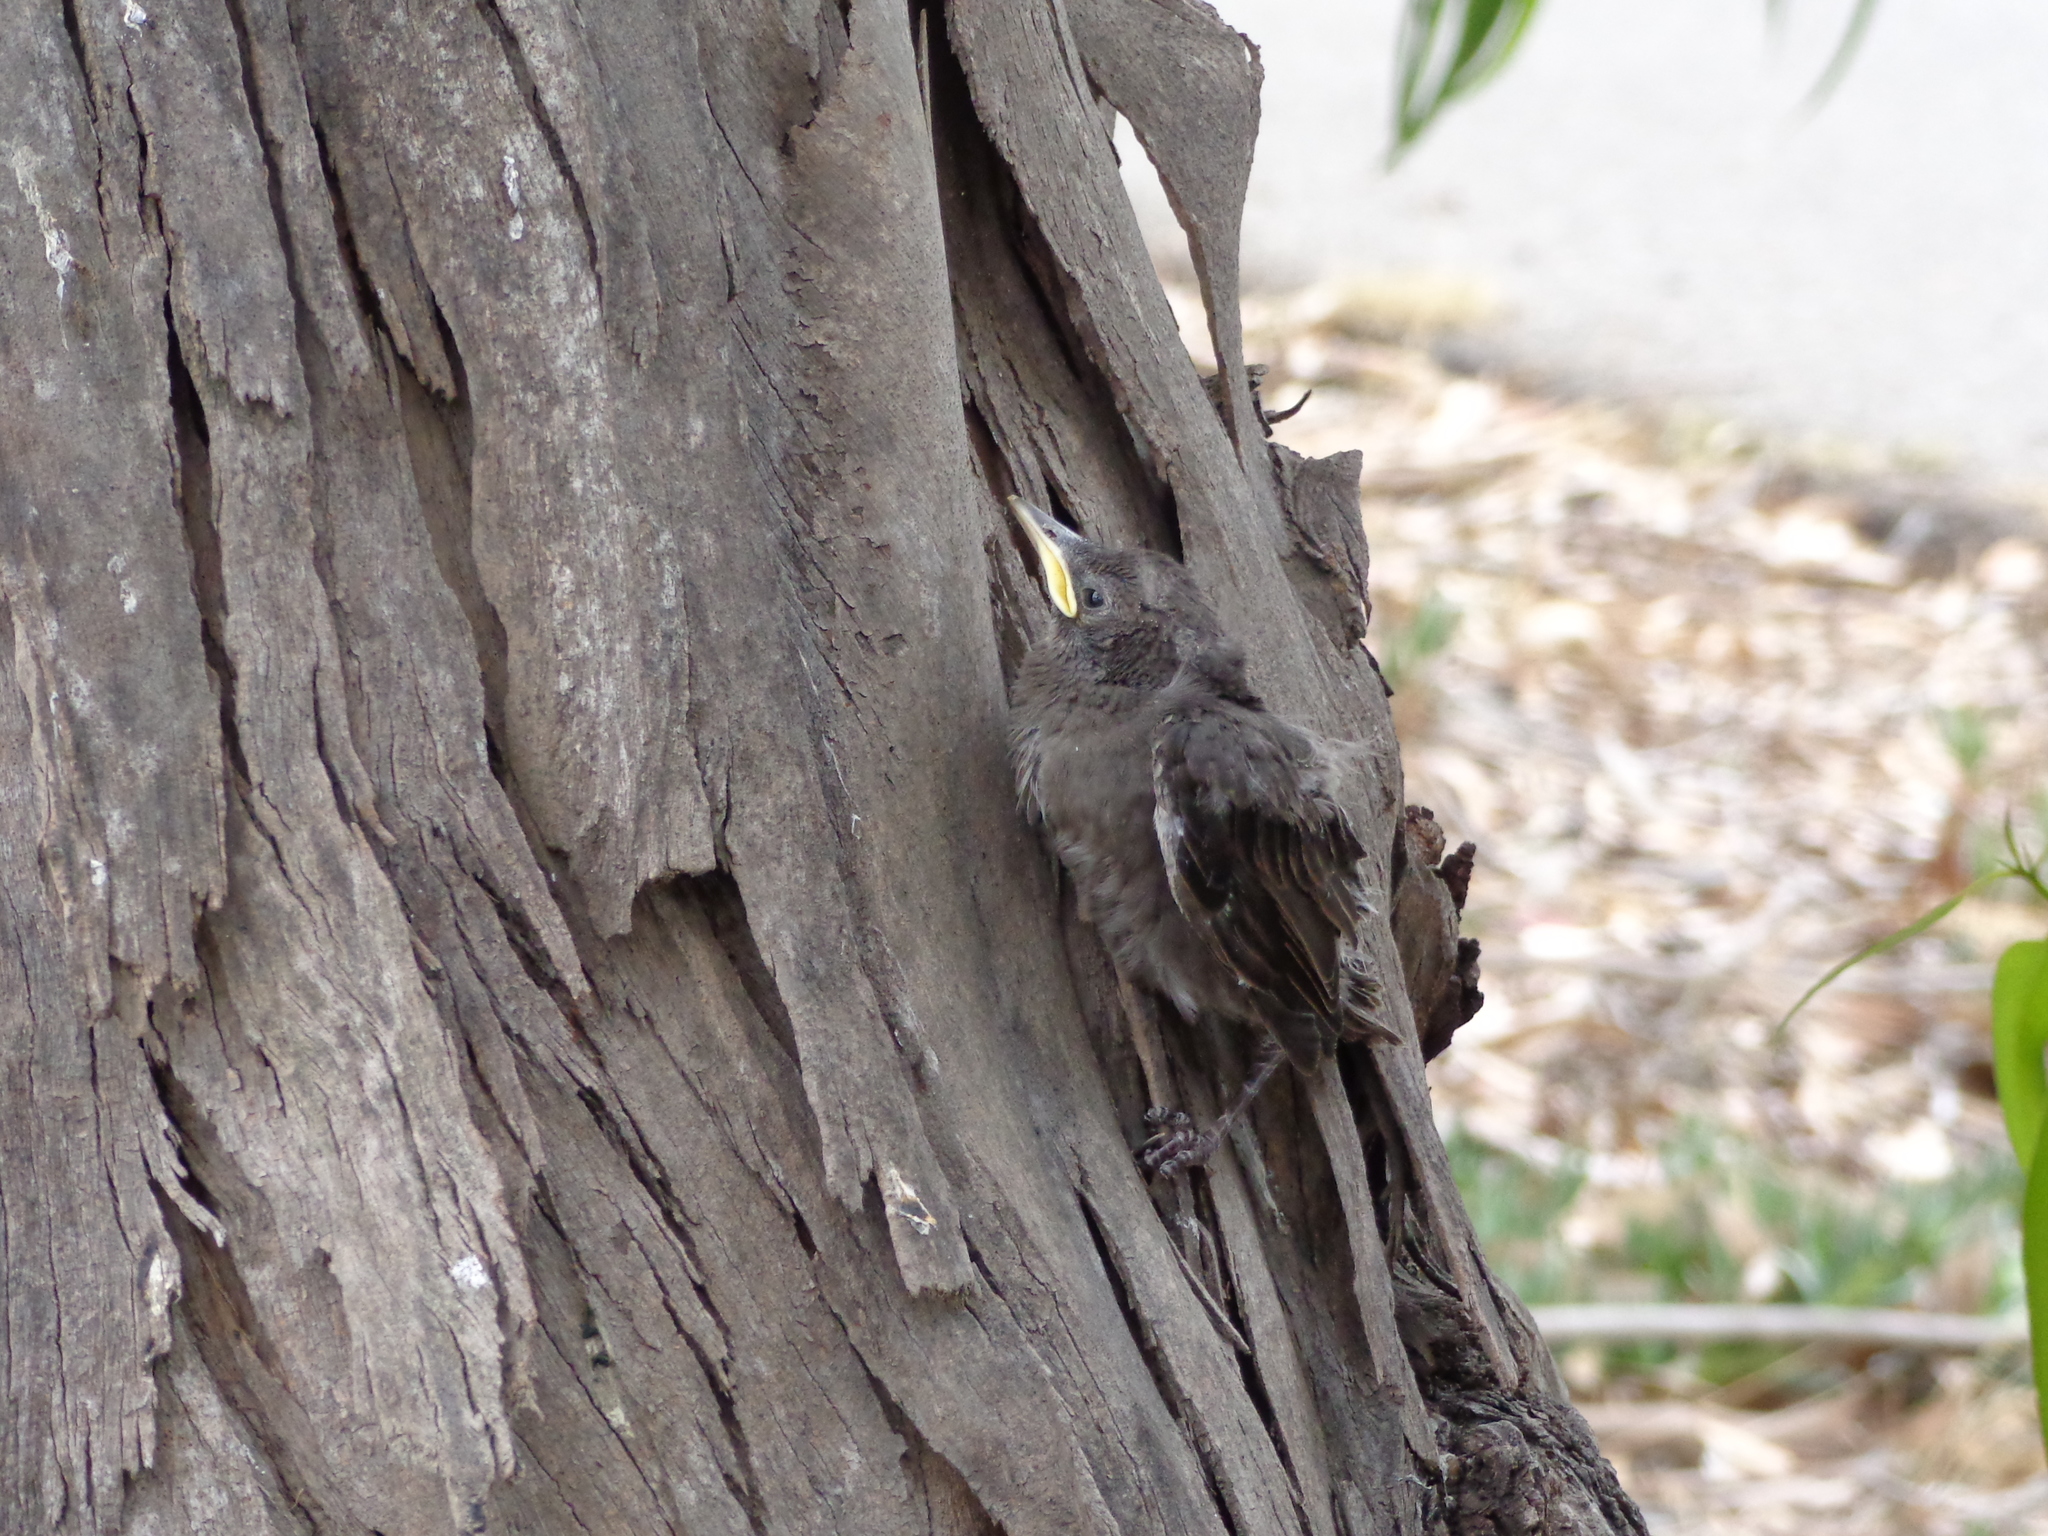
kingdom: Animalia
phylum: Chordata
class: Aves
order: Passeriformes
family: Sturnidae
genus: Sturnus
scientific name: Sturnus vulgaris
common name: Common starling
